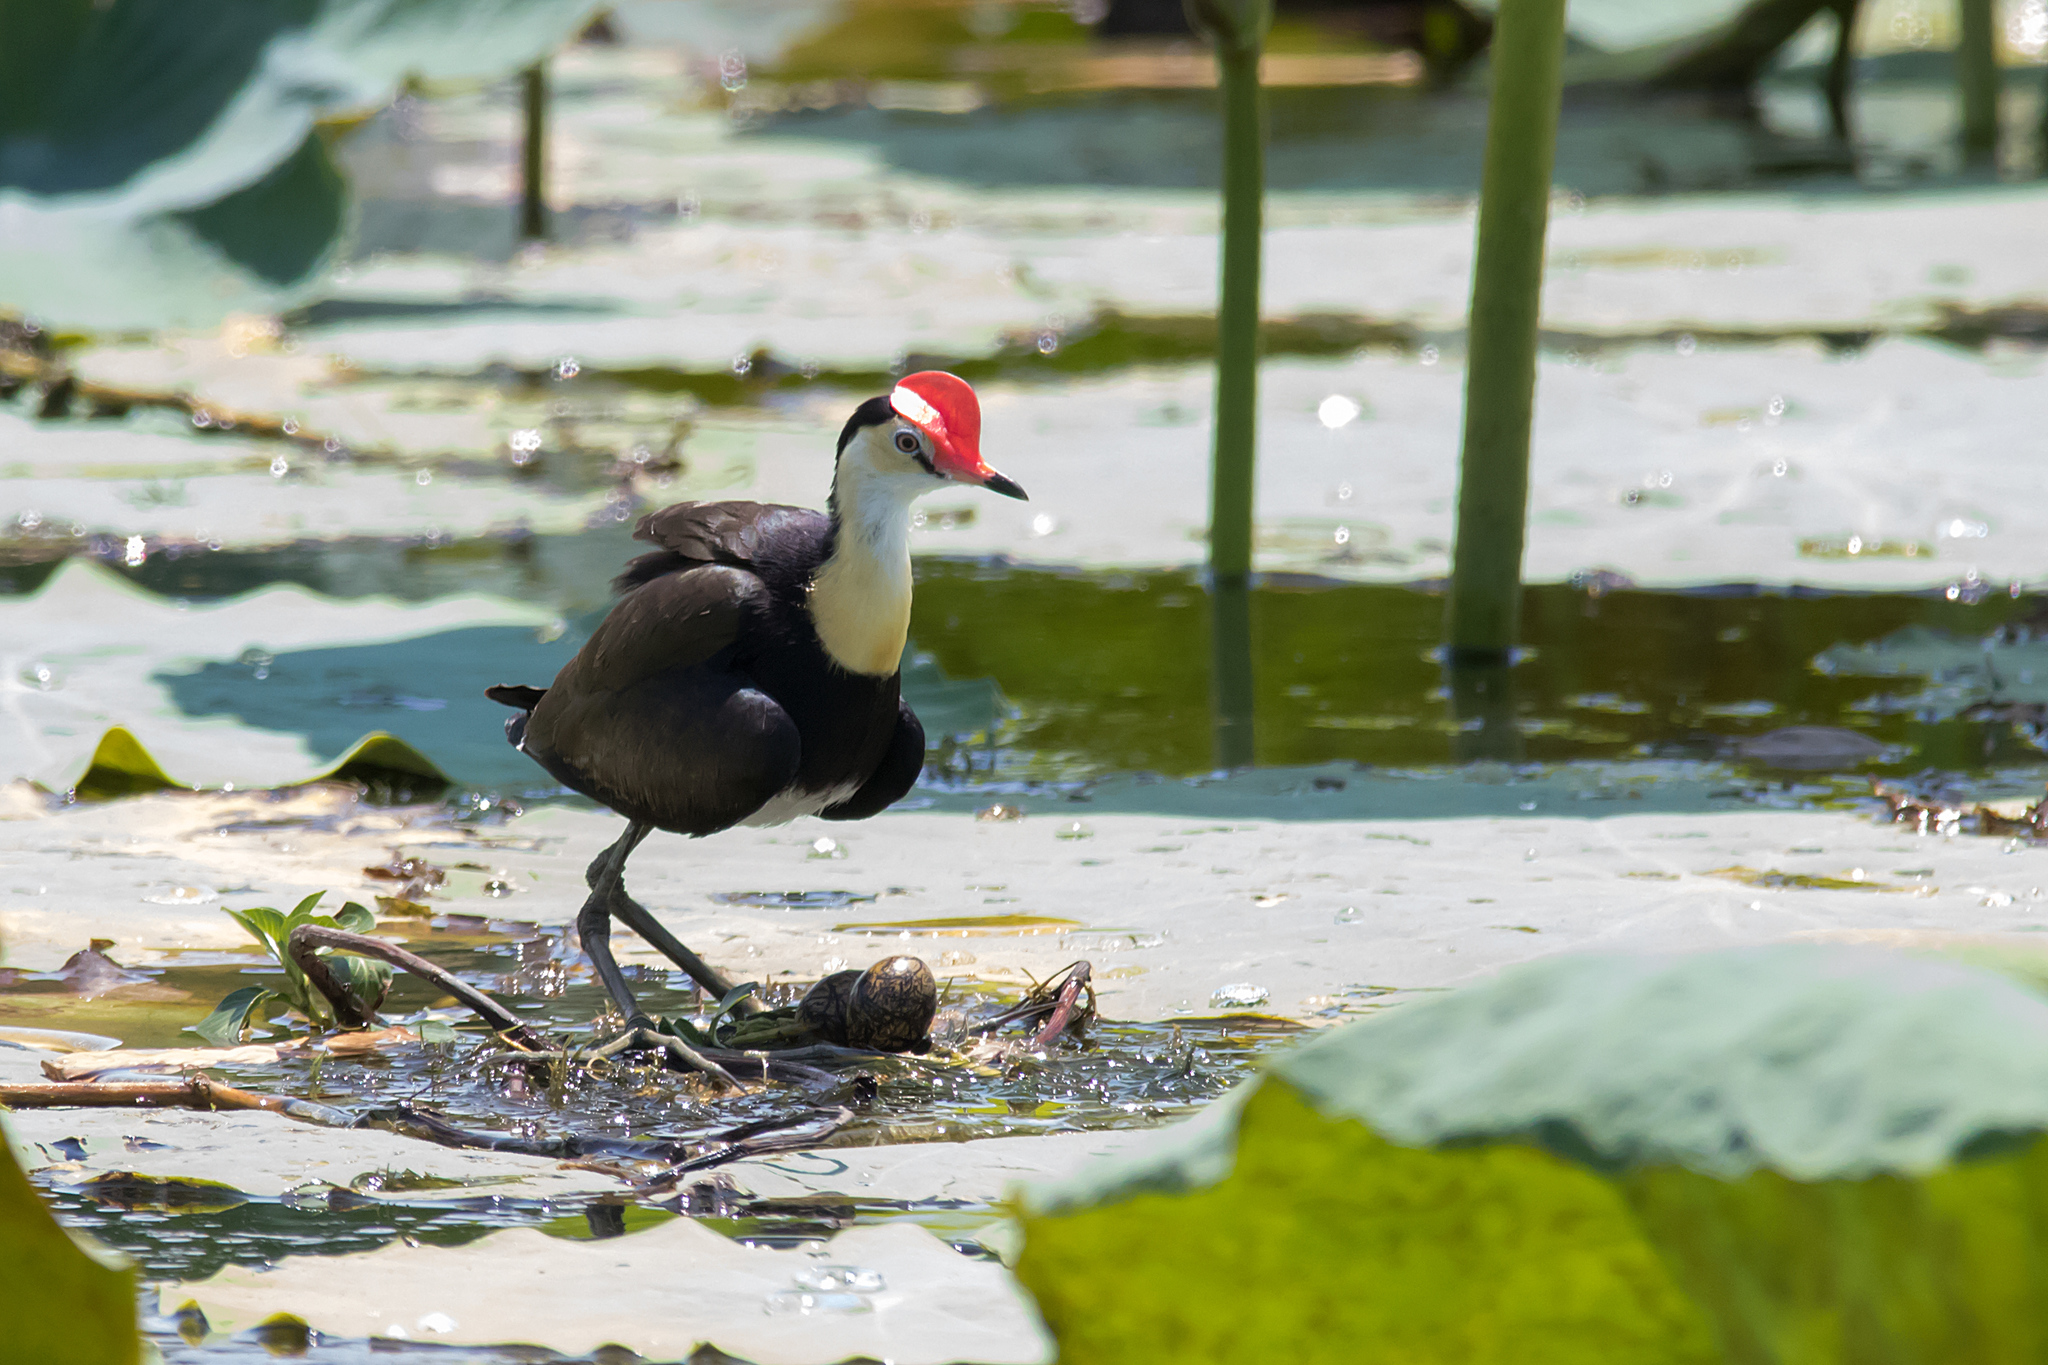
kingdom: Animalia
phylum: Chordata
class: Aves
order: Charadriiformes
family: Jacanidae
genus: Irediparra
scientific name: Irediparra gallinacea
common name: Comb-crested jacana
